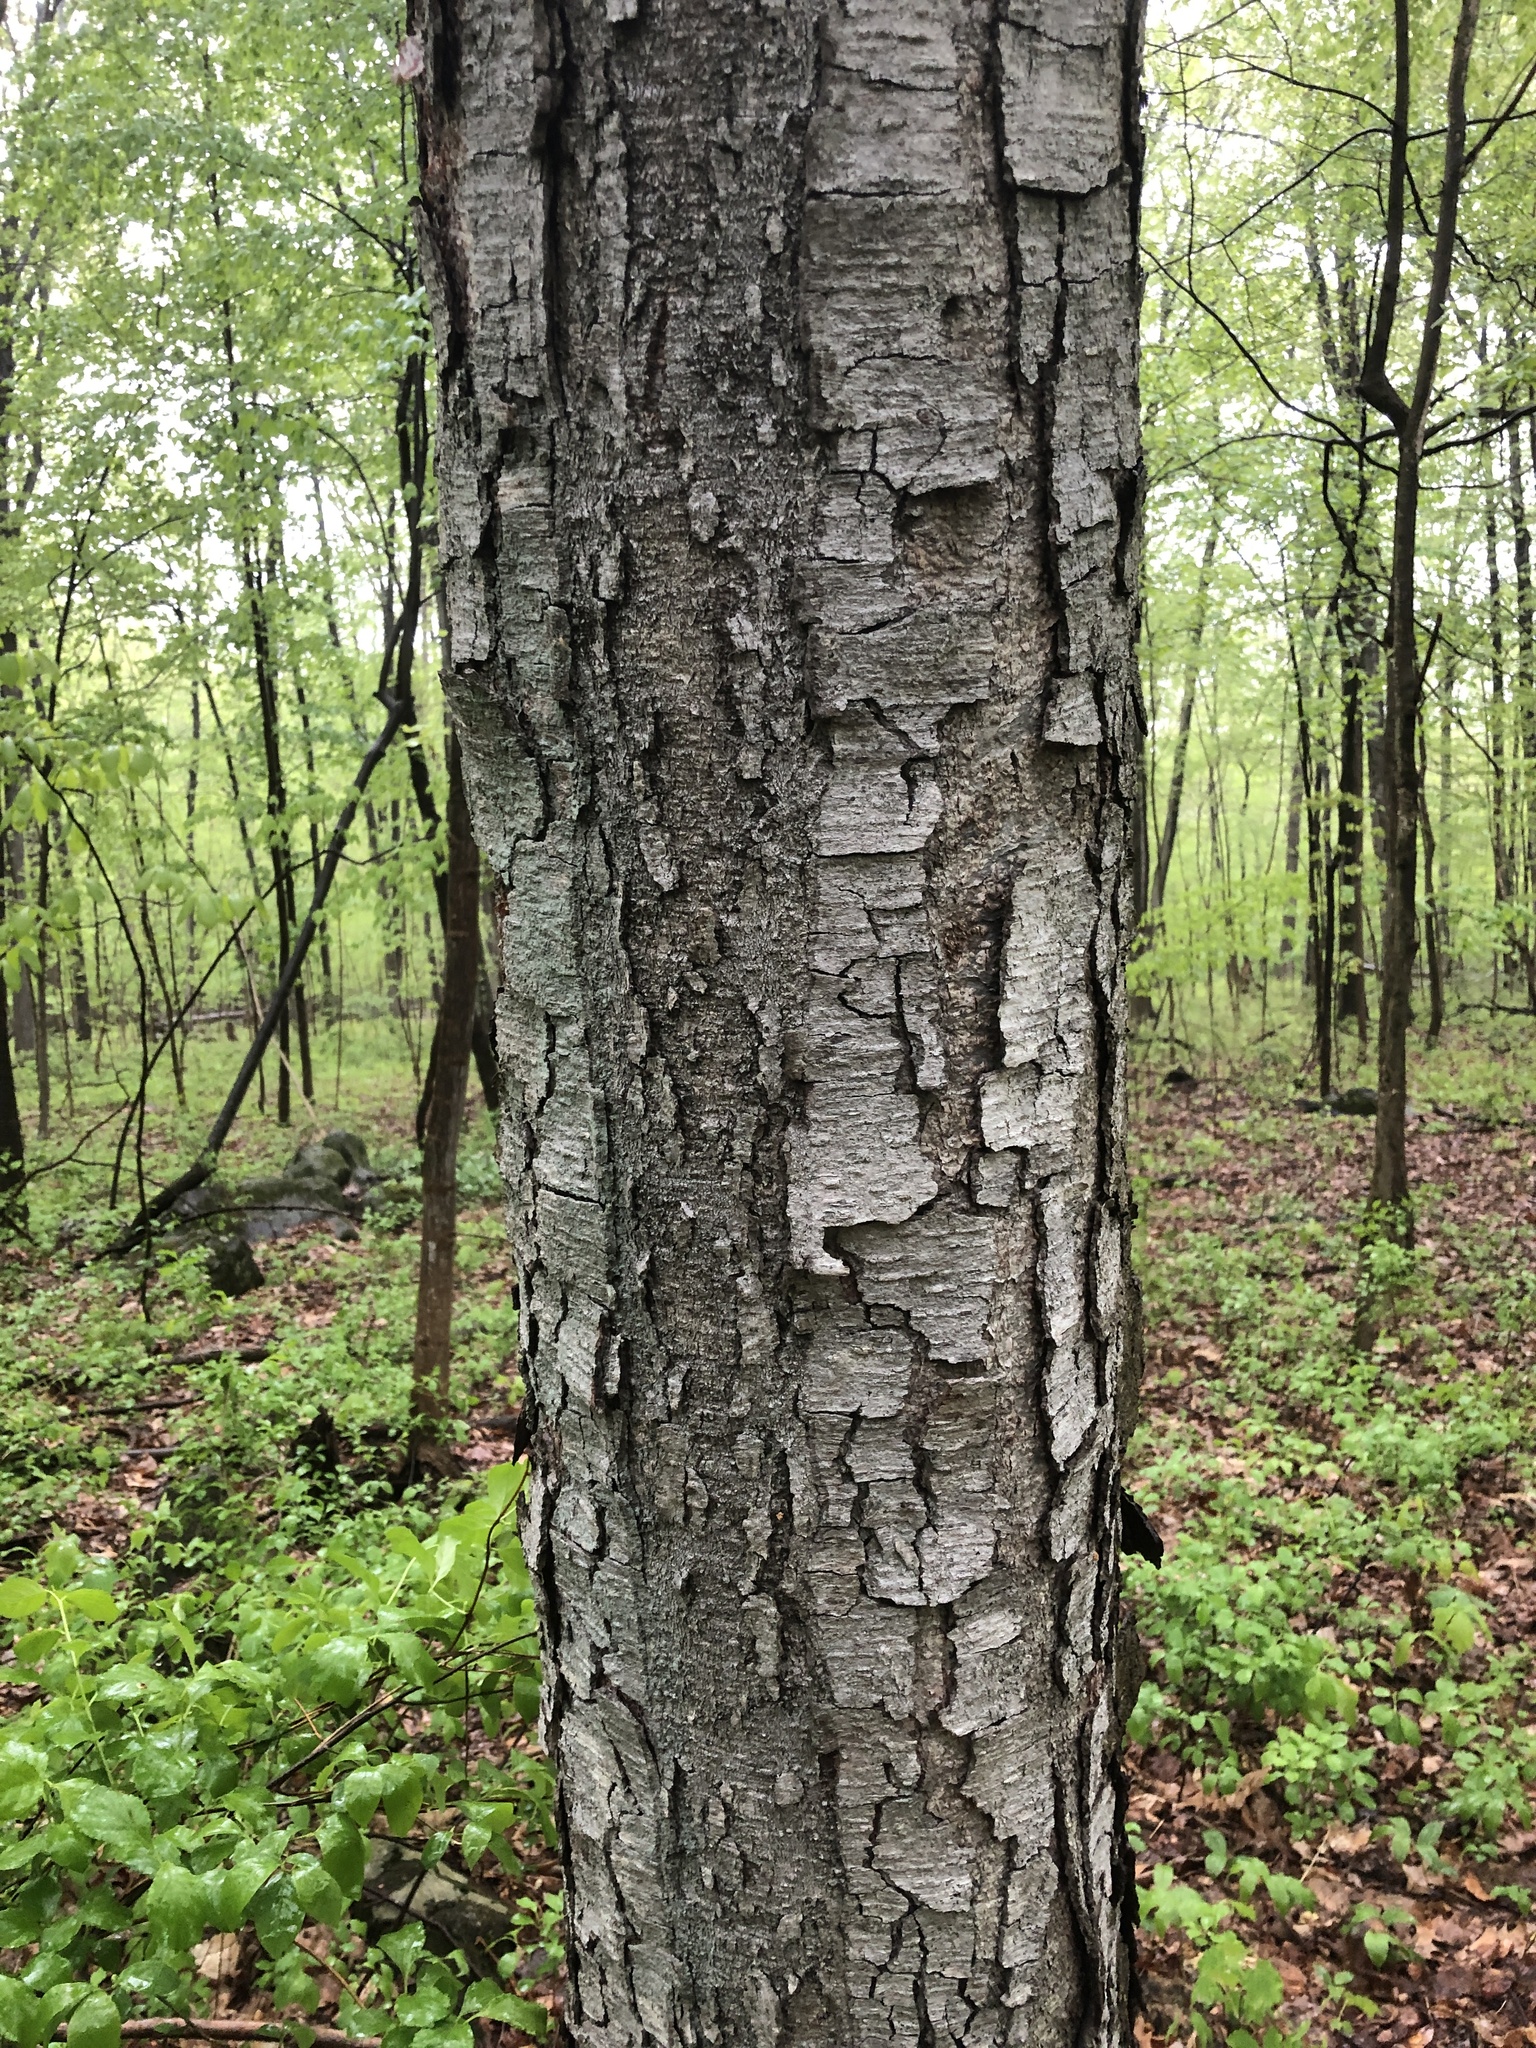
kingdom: Plantae
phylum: Tracheophyta
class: Magnoliopsida
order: Fagales
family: Betulaceae
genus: Betula
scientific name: Betula lenta
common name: Black birch
